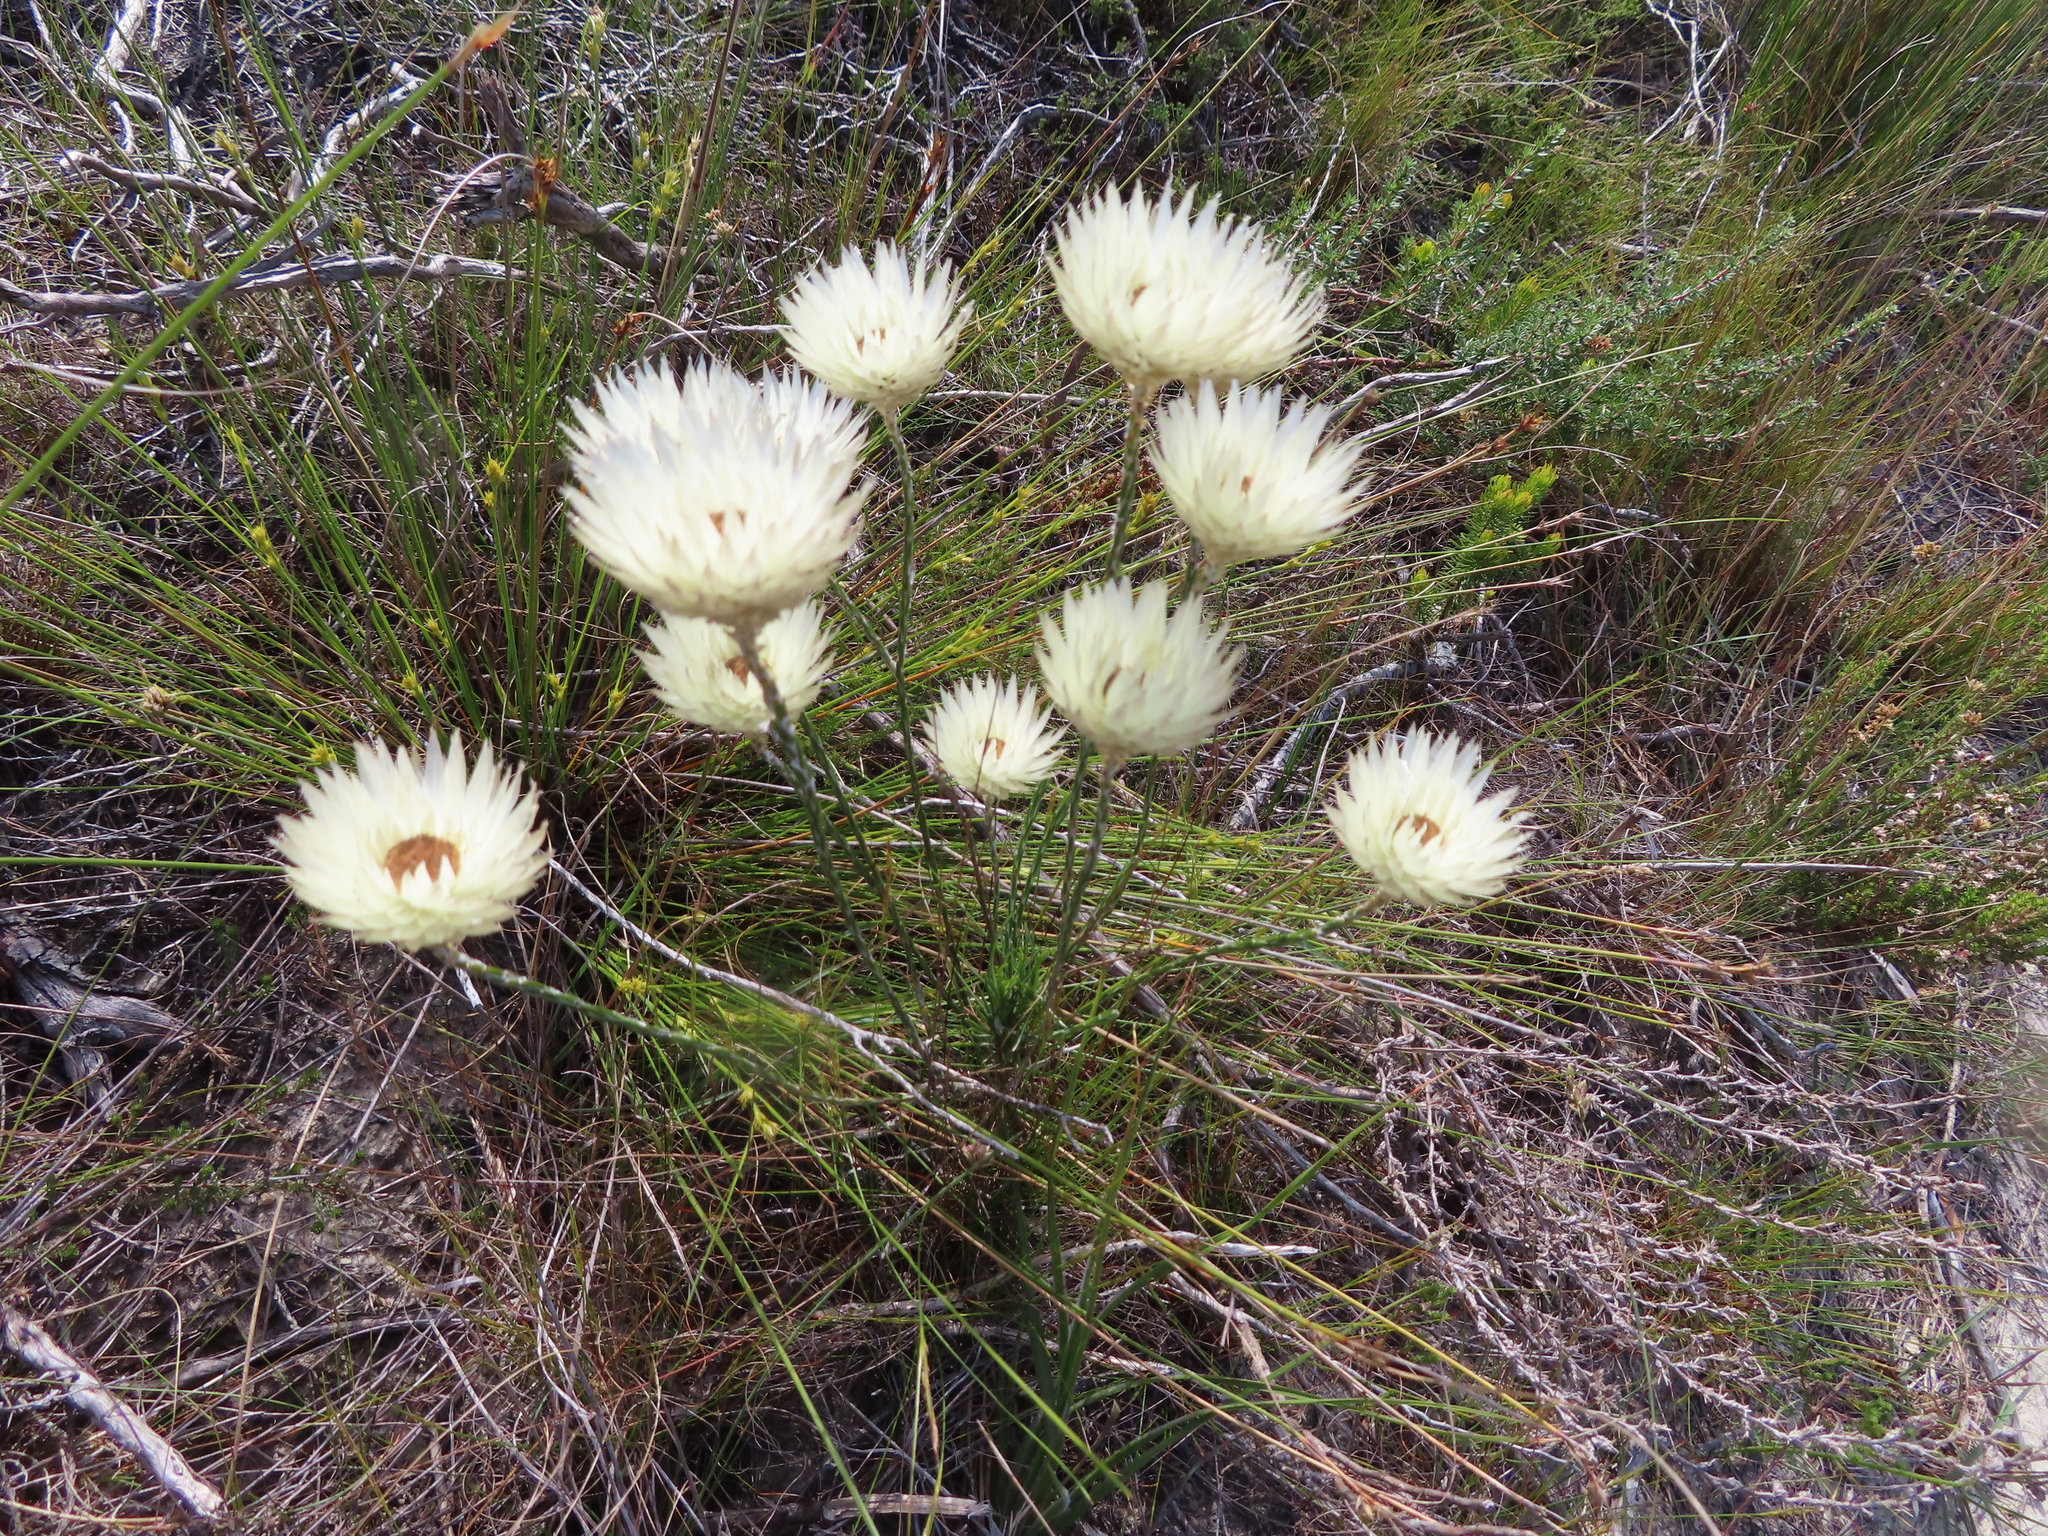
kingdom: Plantae
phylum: Tracheophyta
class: Magnoliopsida
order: Asterales
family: Asteraceae
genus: Edmondia
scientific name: Edmondia sesamoides
